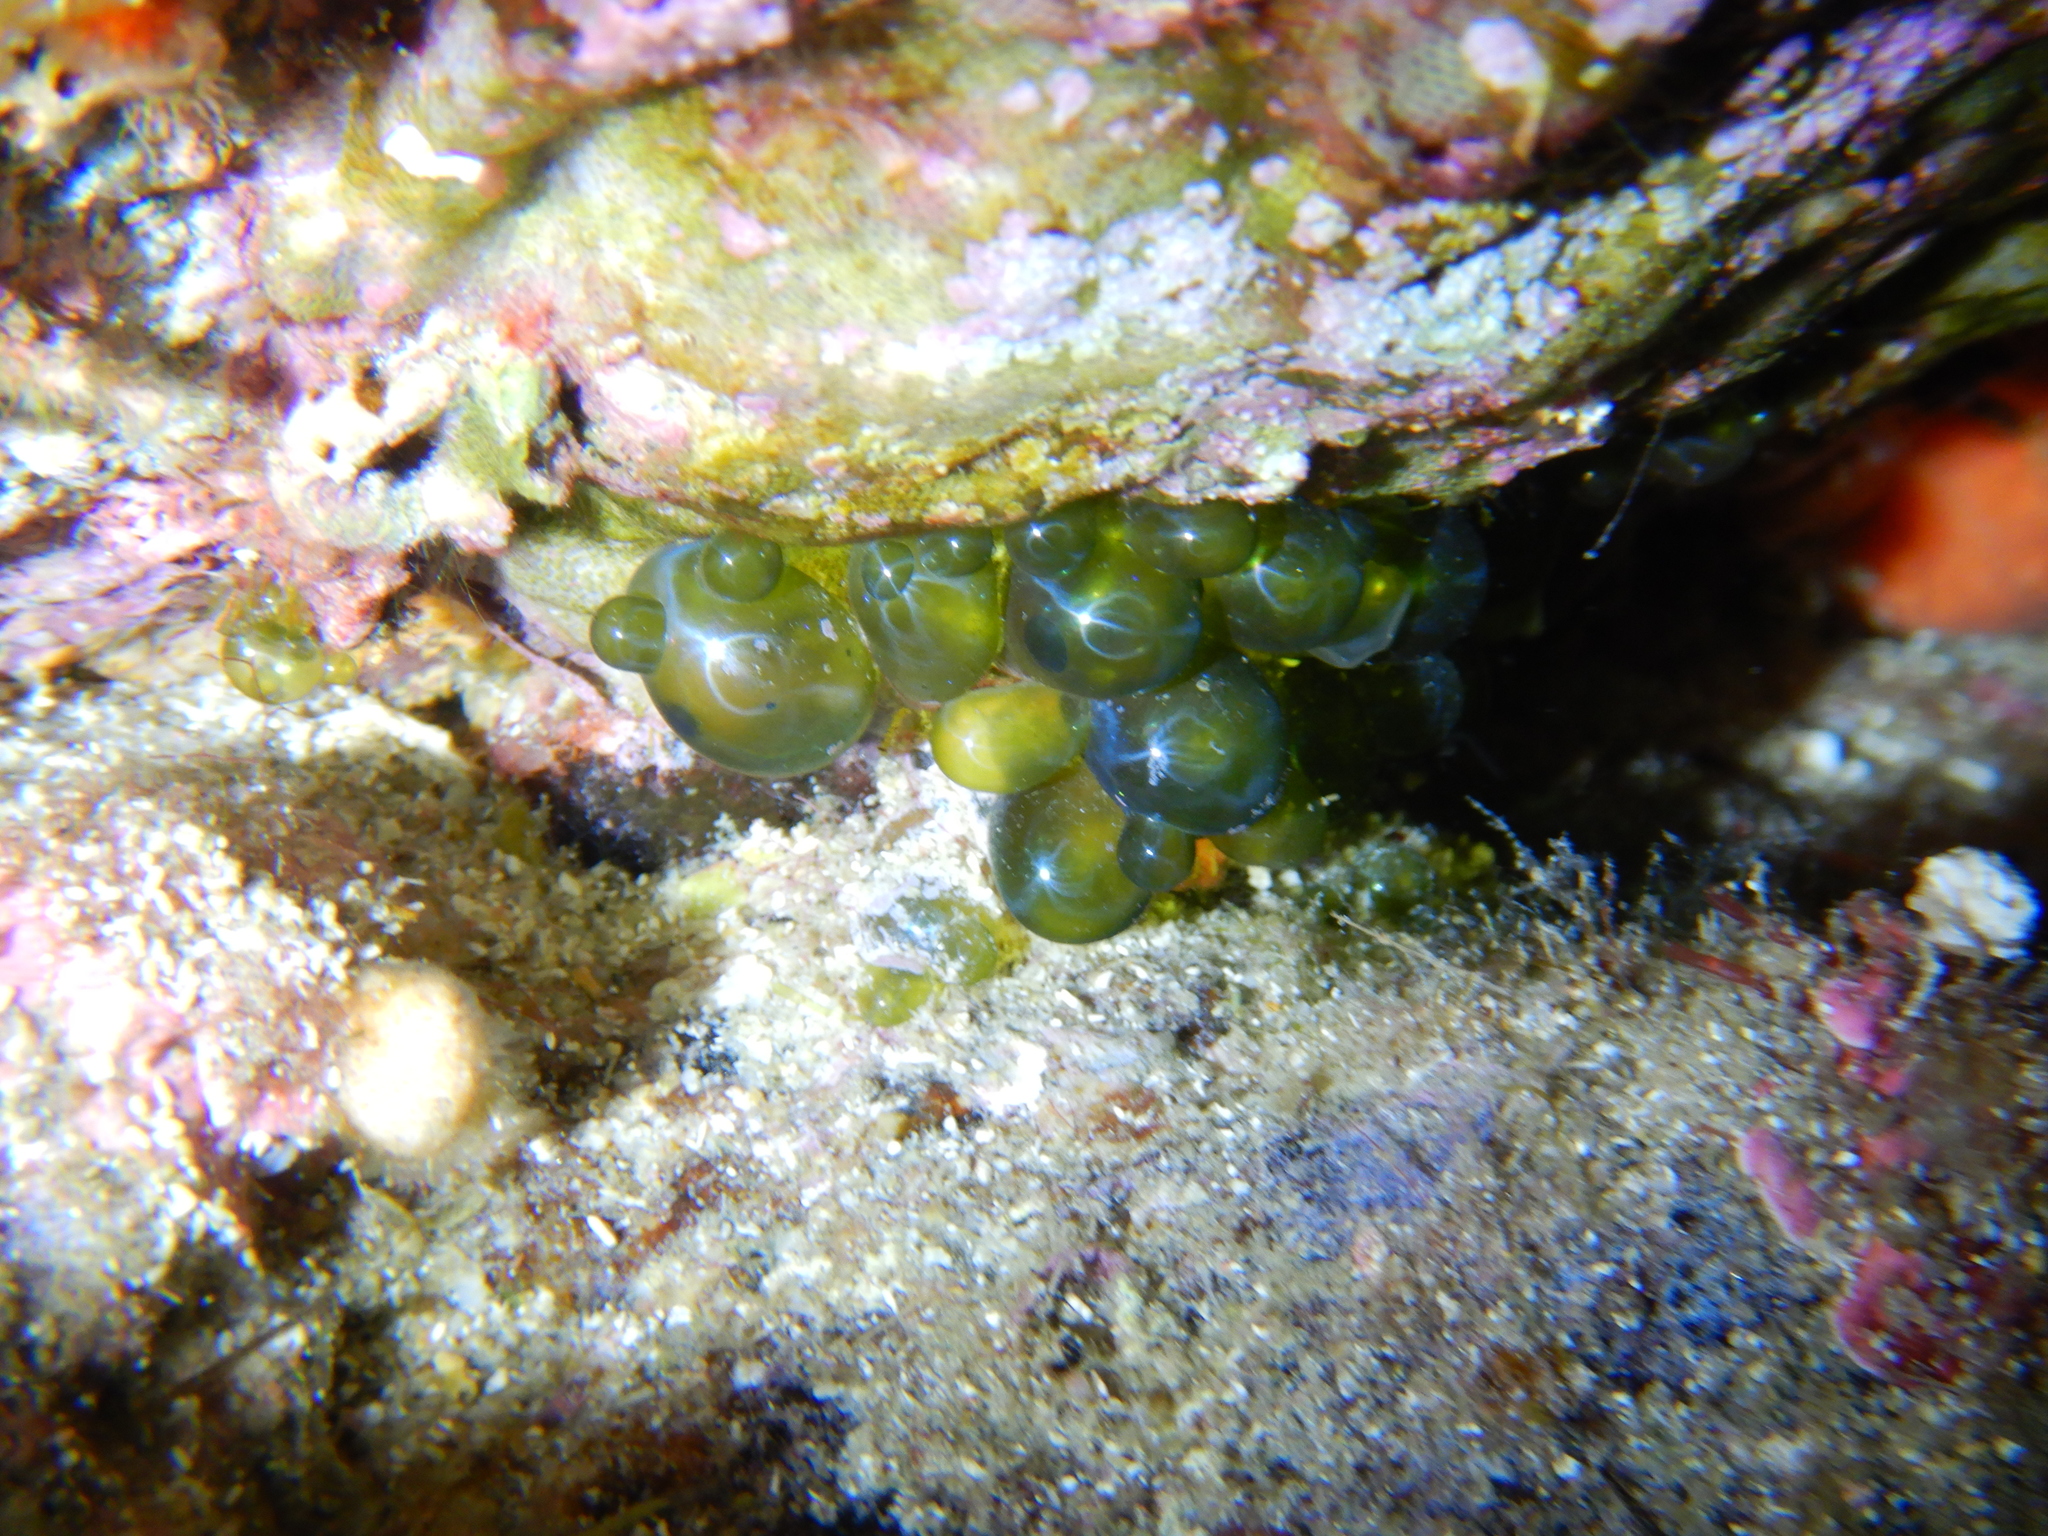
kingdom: Plantae
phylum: Chlorophyta
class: Ulvophyceae
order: Siphonocladales
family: Valoniaceae
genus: Valonia
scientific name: Valonia macrophysa
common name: Elongated sea pearls
